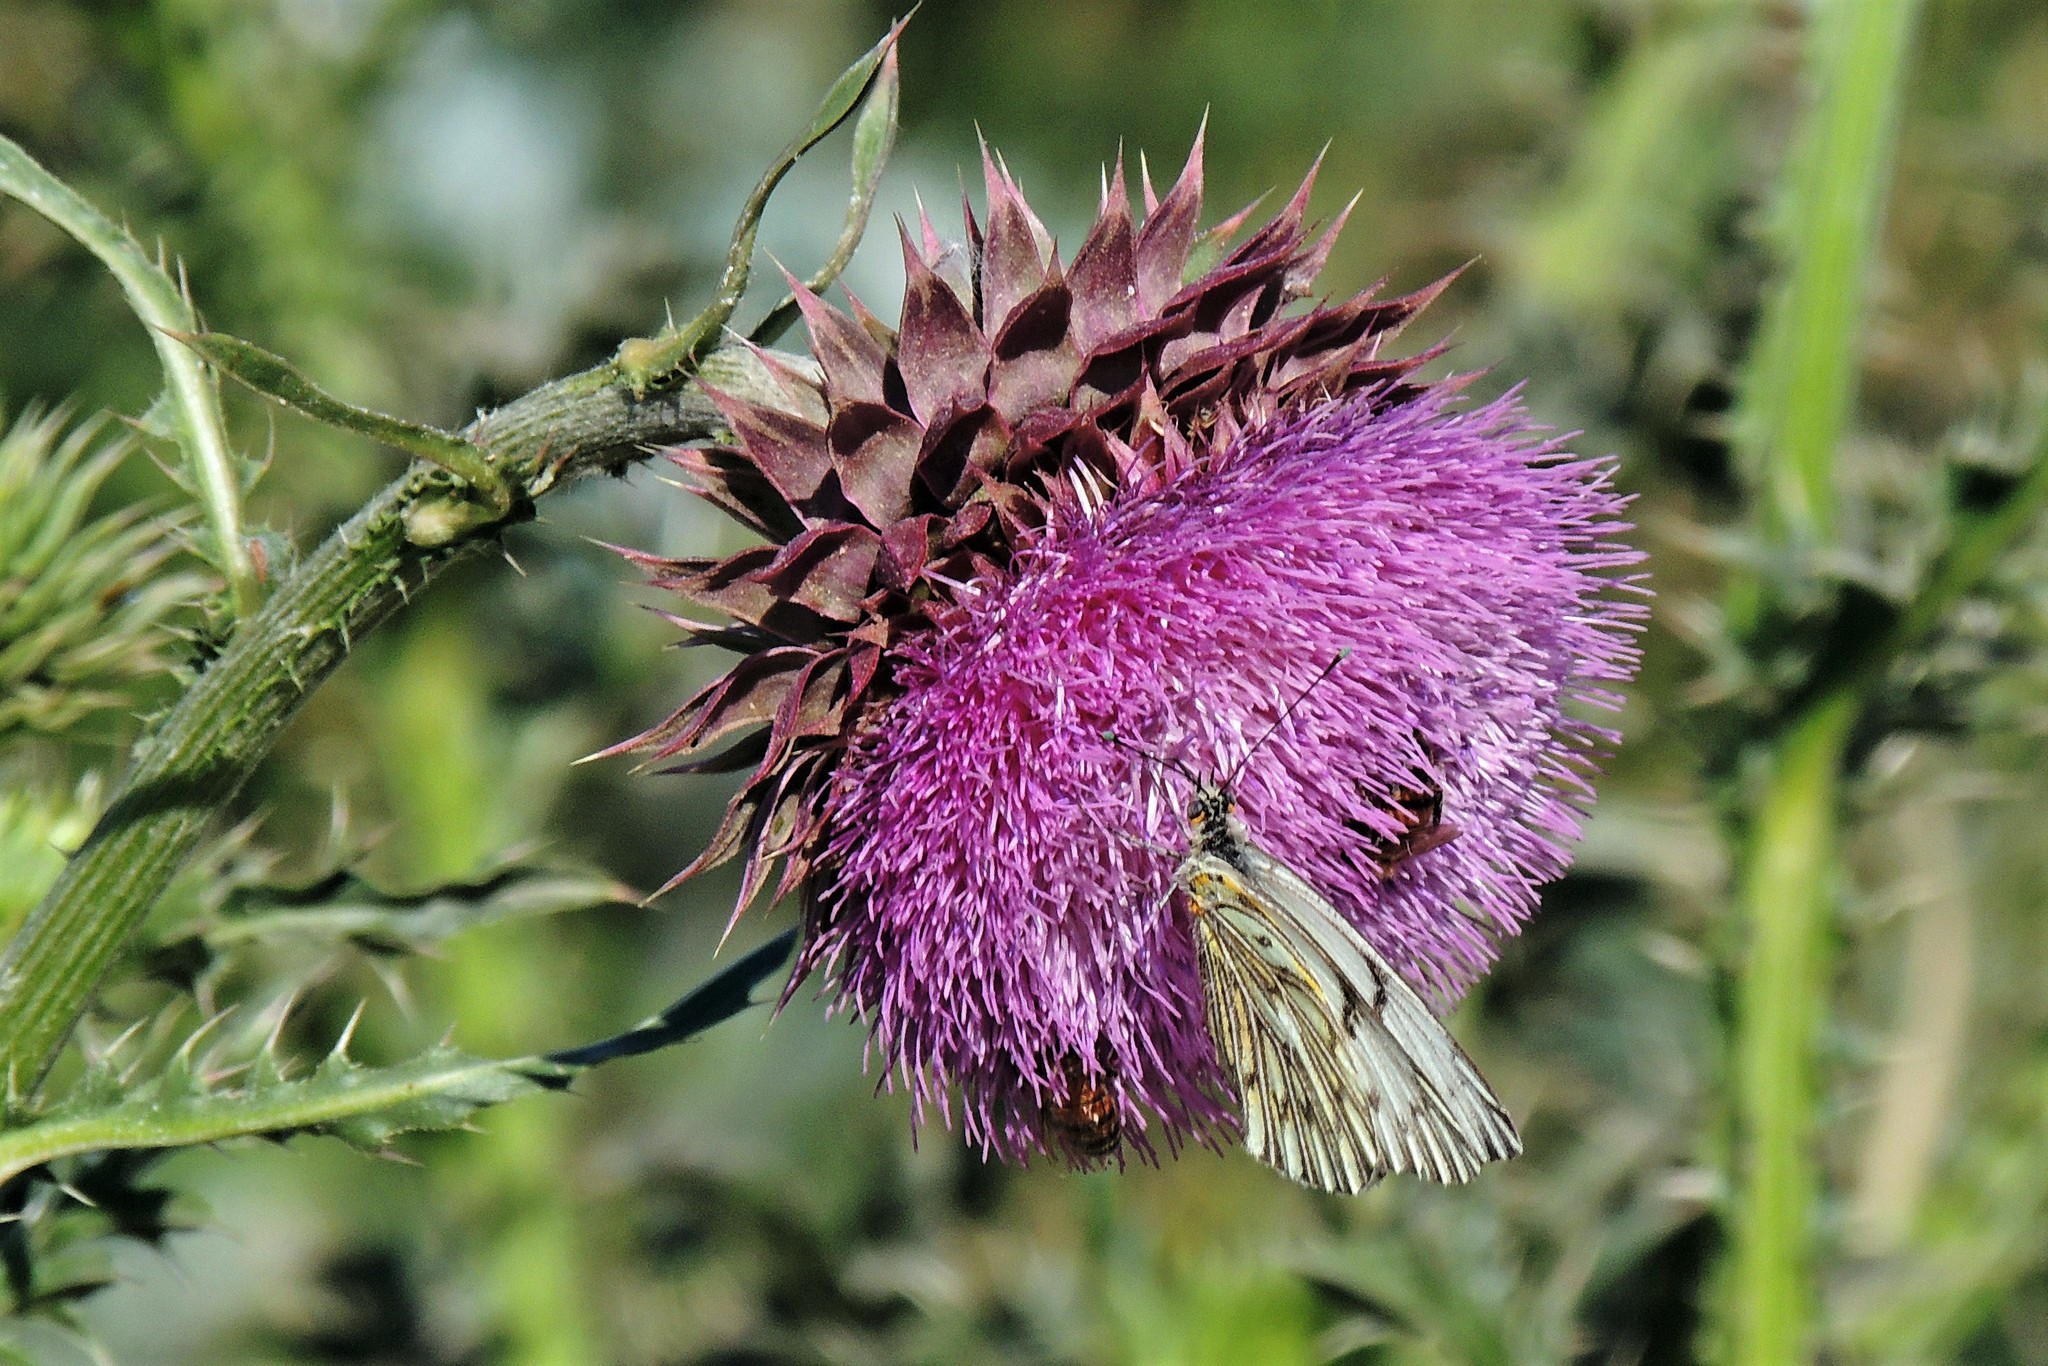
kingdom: Plantae
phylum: Tracheophyta
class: Magnoliopsida
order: Asterales
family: Asteraceae
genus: Carduus
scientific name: Carduus nutans
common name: Musk thistle
